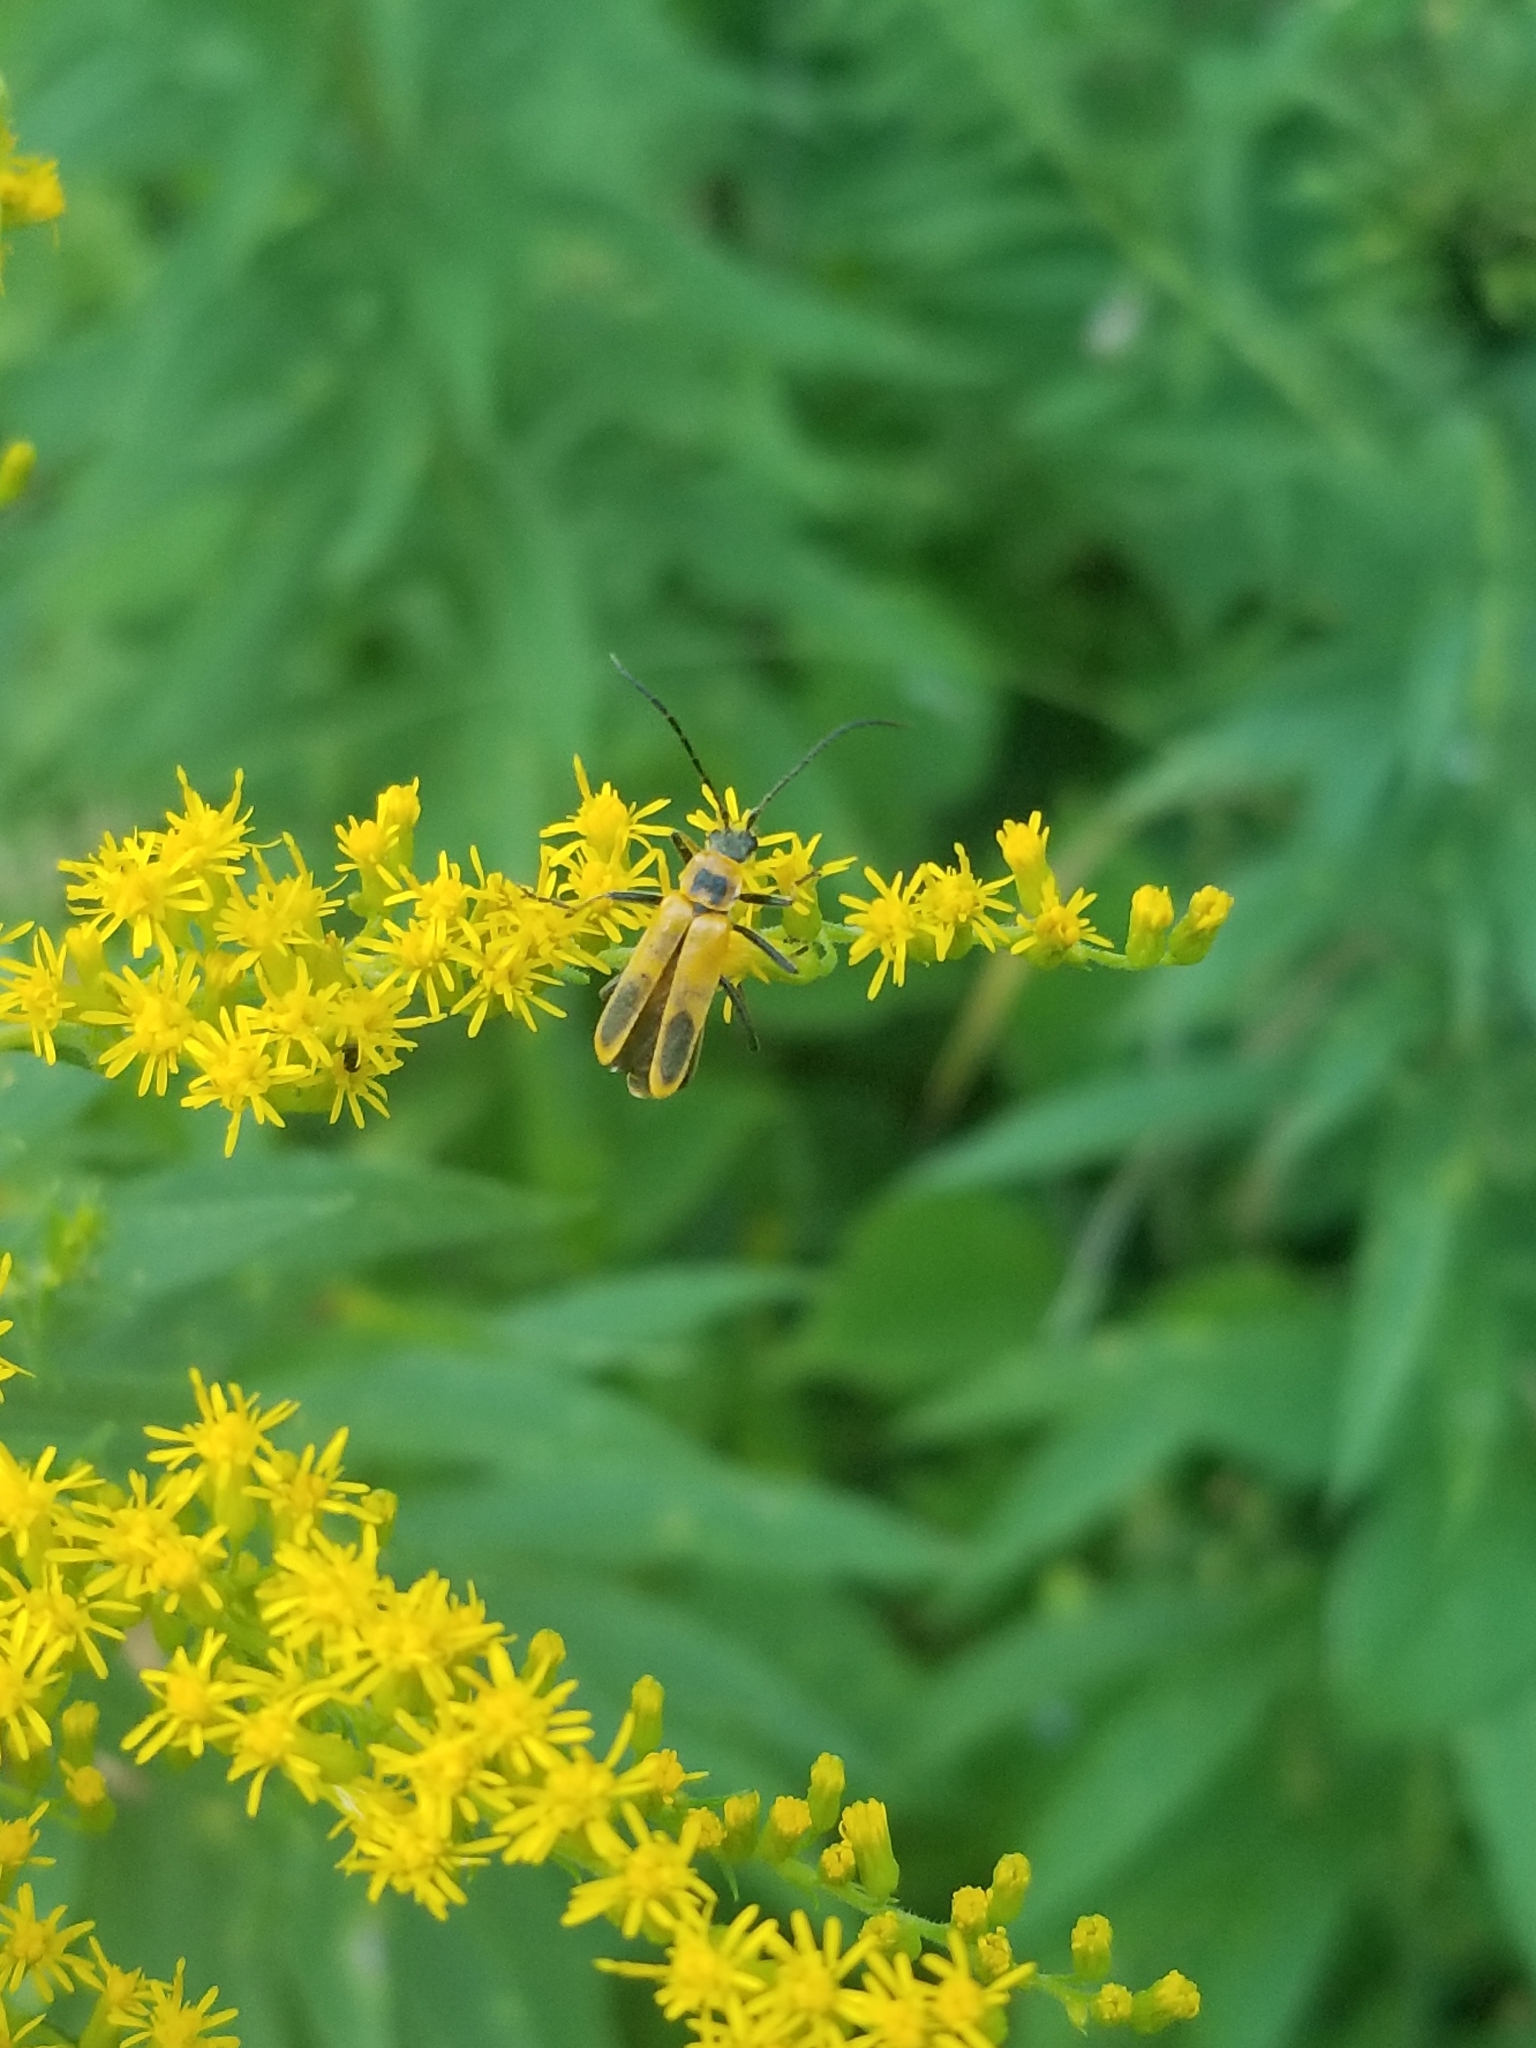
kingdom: Animalia
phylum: Arthropoda
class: Insecta
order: Coleoptera
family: Cantharidae
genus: Chauliognathus
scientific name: Chauliognathus pensylvanicus
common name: Goldenrod soldier beetle
